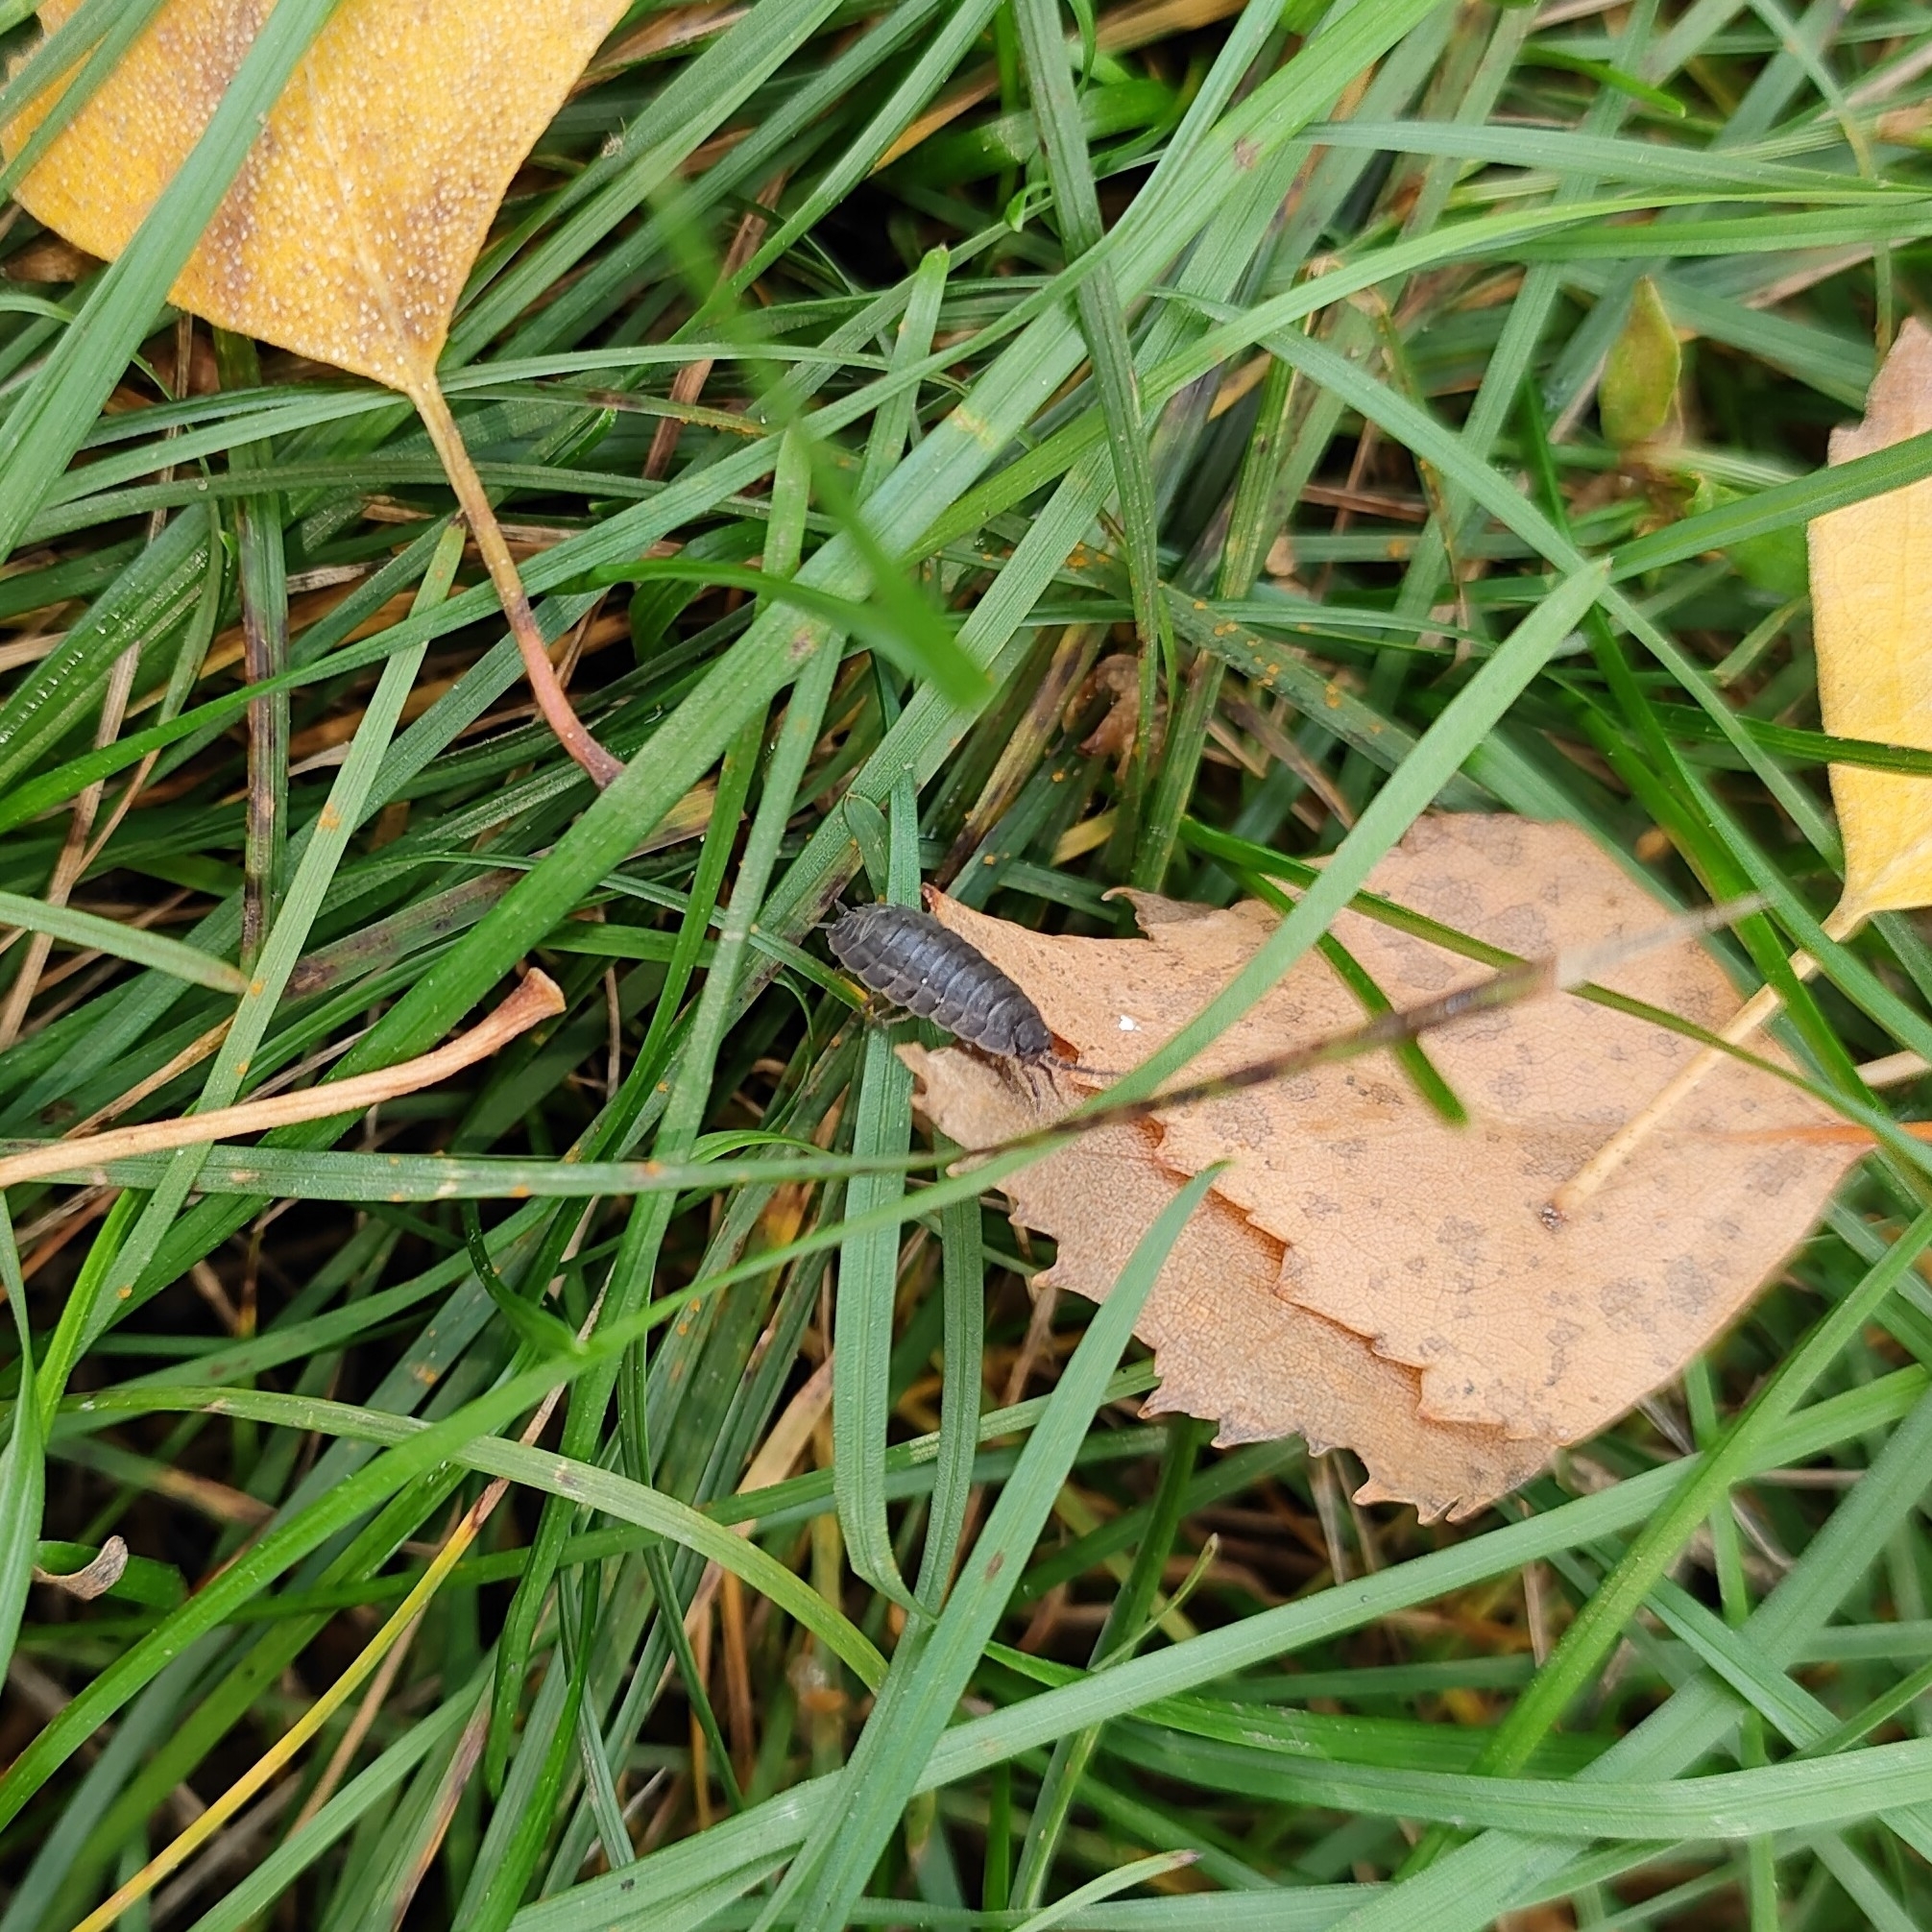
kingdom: Animalia
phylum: Arthropoda
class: Malacostraca
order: Isopoda
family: Trachelipodidae
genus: Trachelipus
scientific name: Trachelipus rathkii
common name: Isopod
